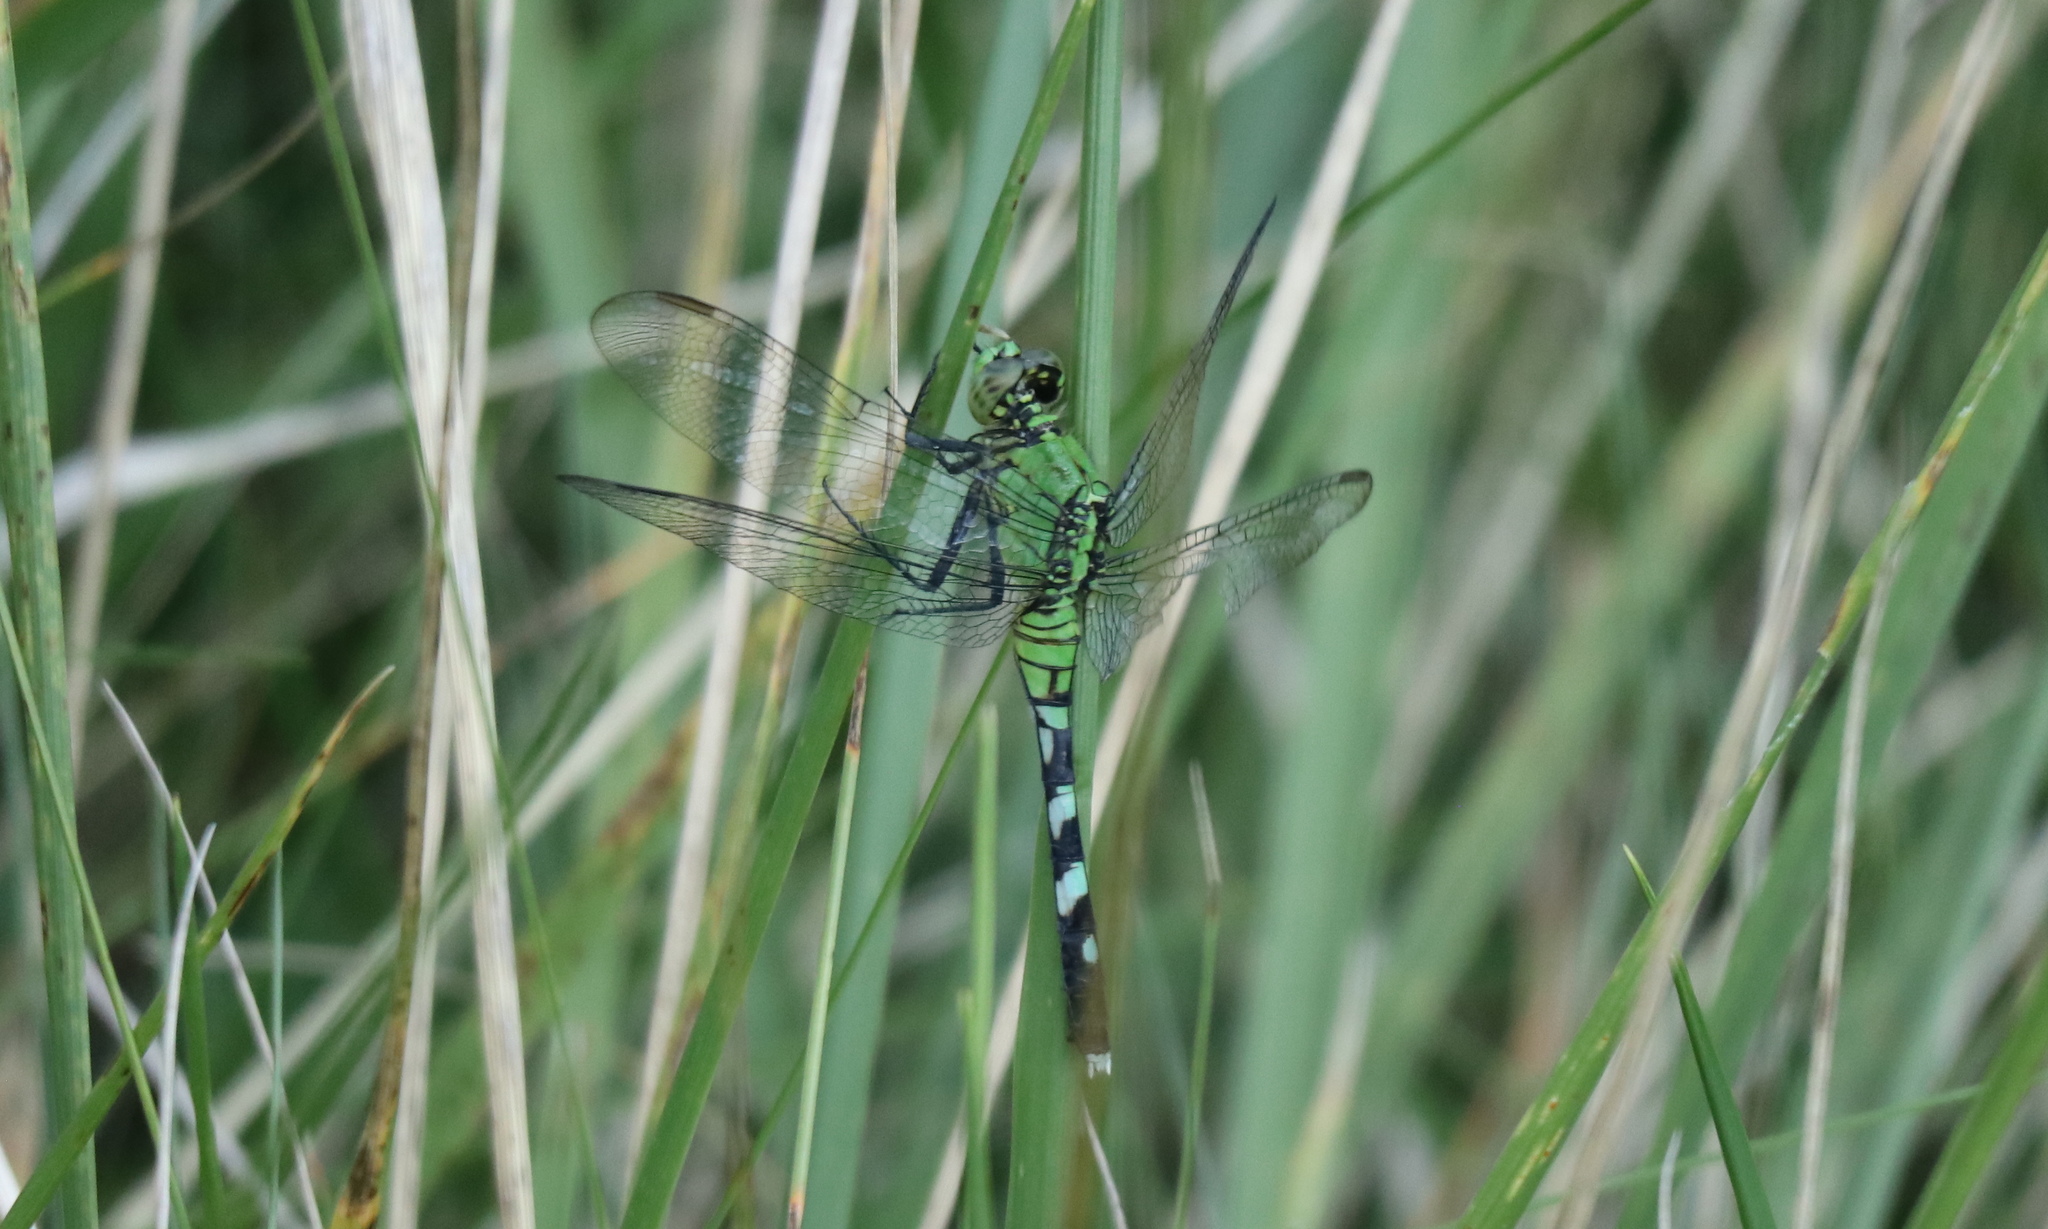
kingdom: Animalia
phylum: Arthropoda
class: Insecta
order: Odonata
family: Libellulidae
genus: Erythemis
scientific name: Erythemis simplicicollis
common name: Eastern pondhawk
